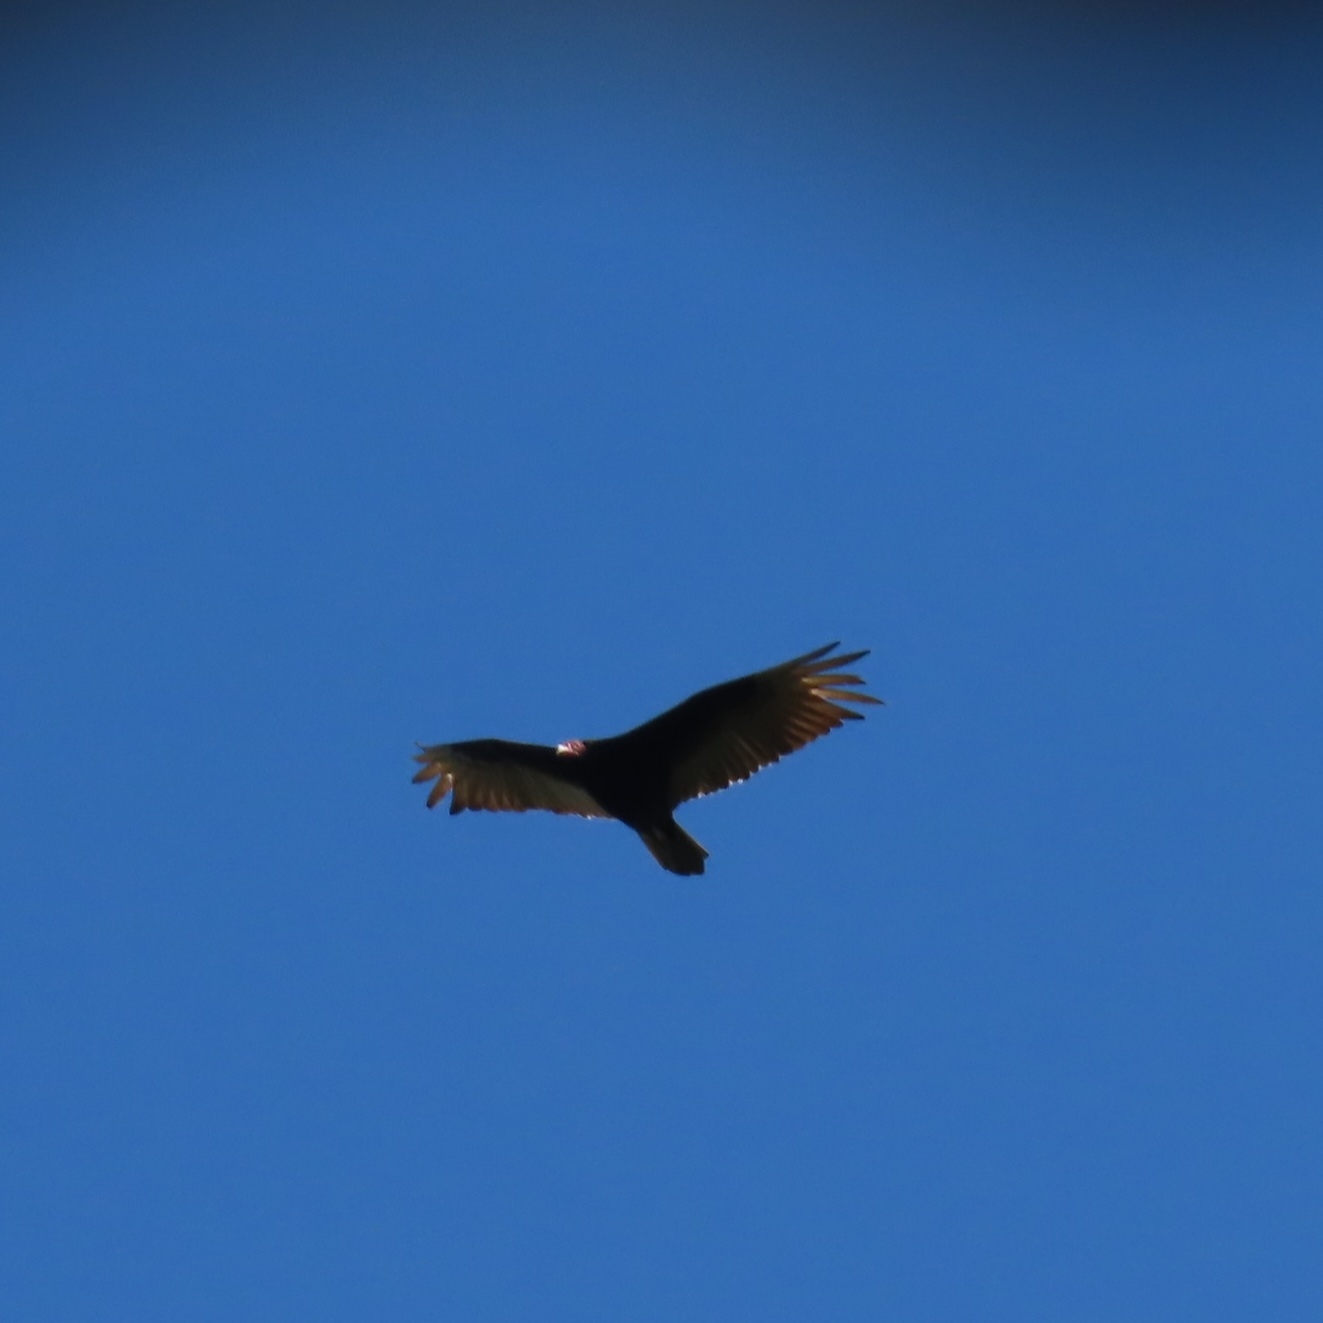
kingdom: Animalia
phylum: Chordata
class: Aves
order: Accipitriformes
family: Cathartidae
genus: Cathartes
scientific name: Cathartes aura
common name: Turkey vulture
